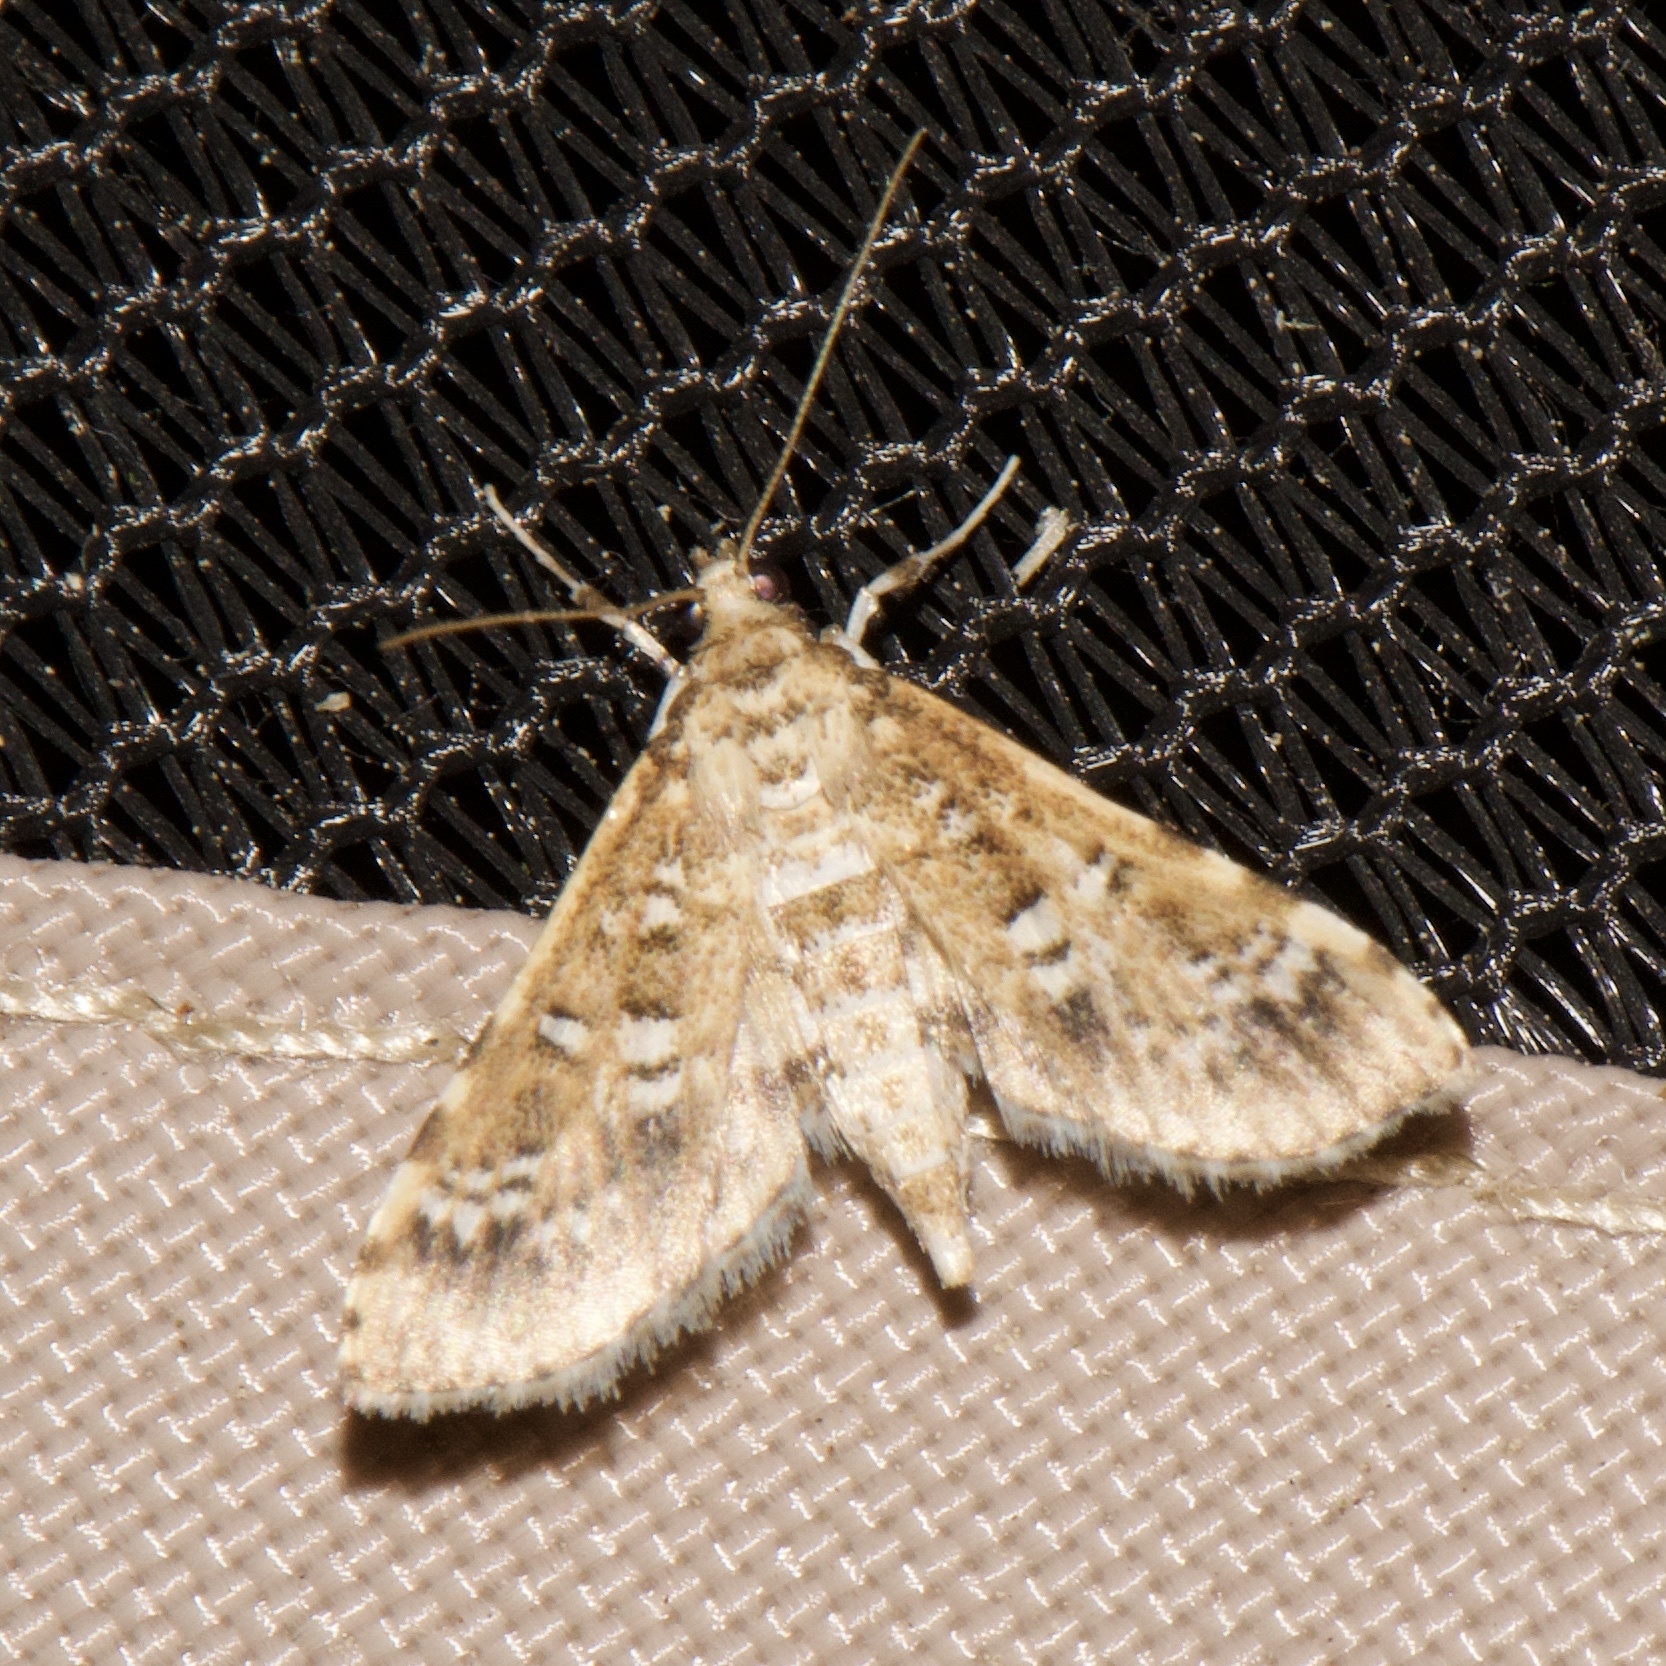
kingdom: Animalia
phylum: Arthropoda
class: Insecta
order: Lepidoptera
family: Crambidae
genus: Samea
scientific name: Samea multiplicalis
